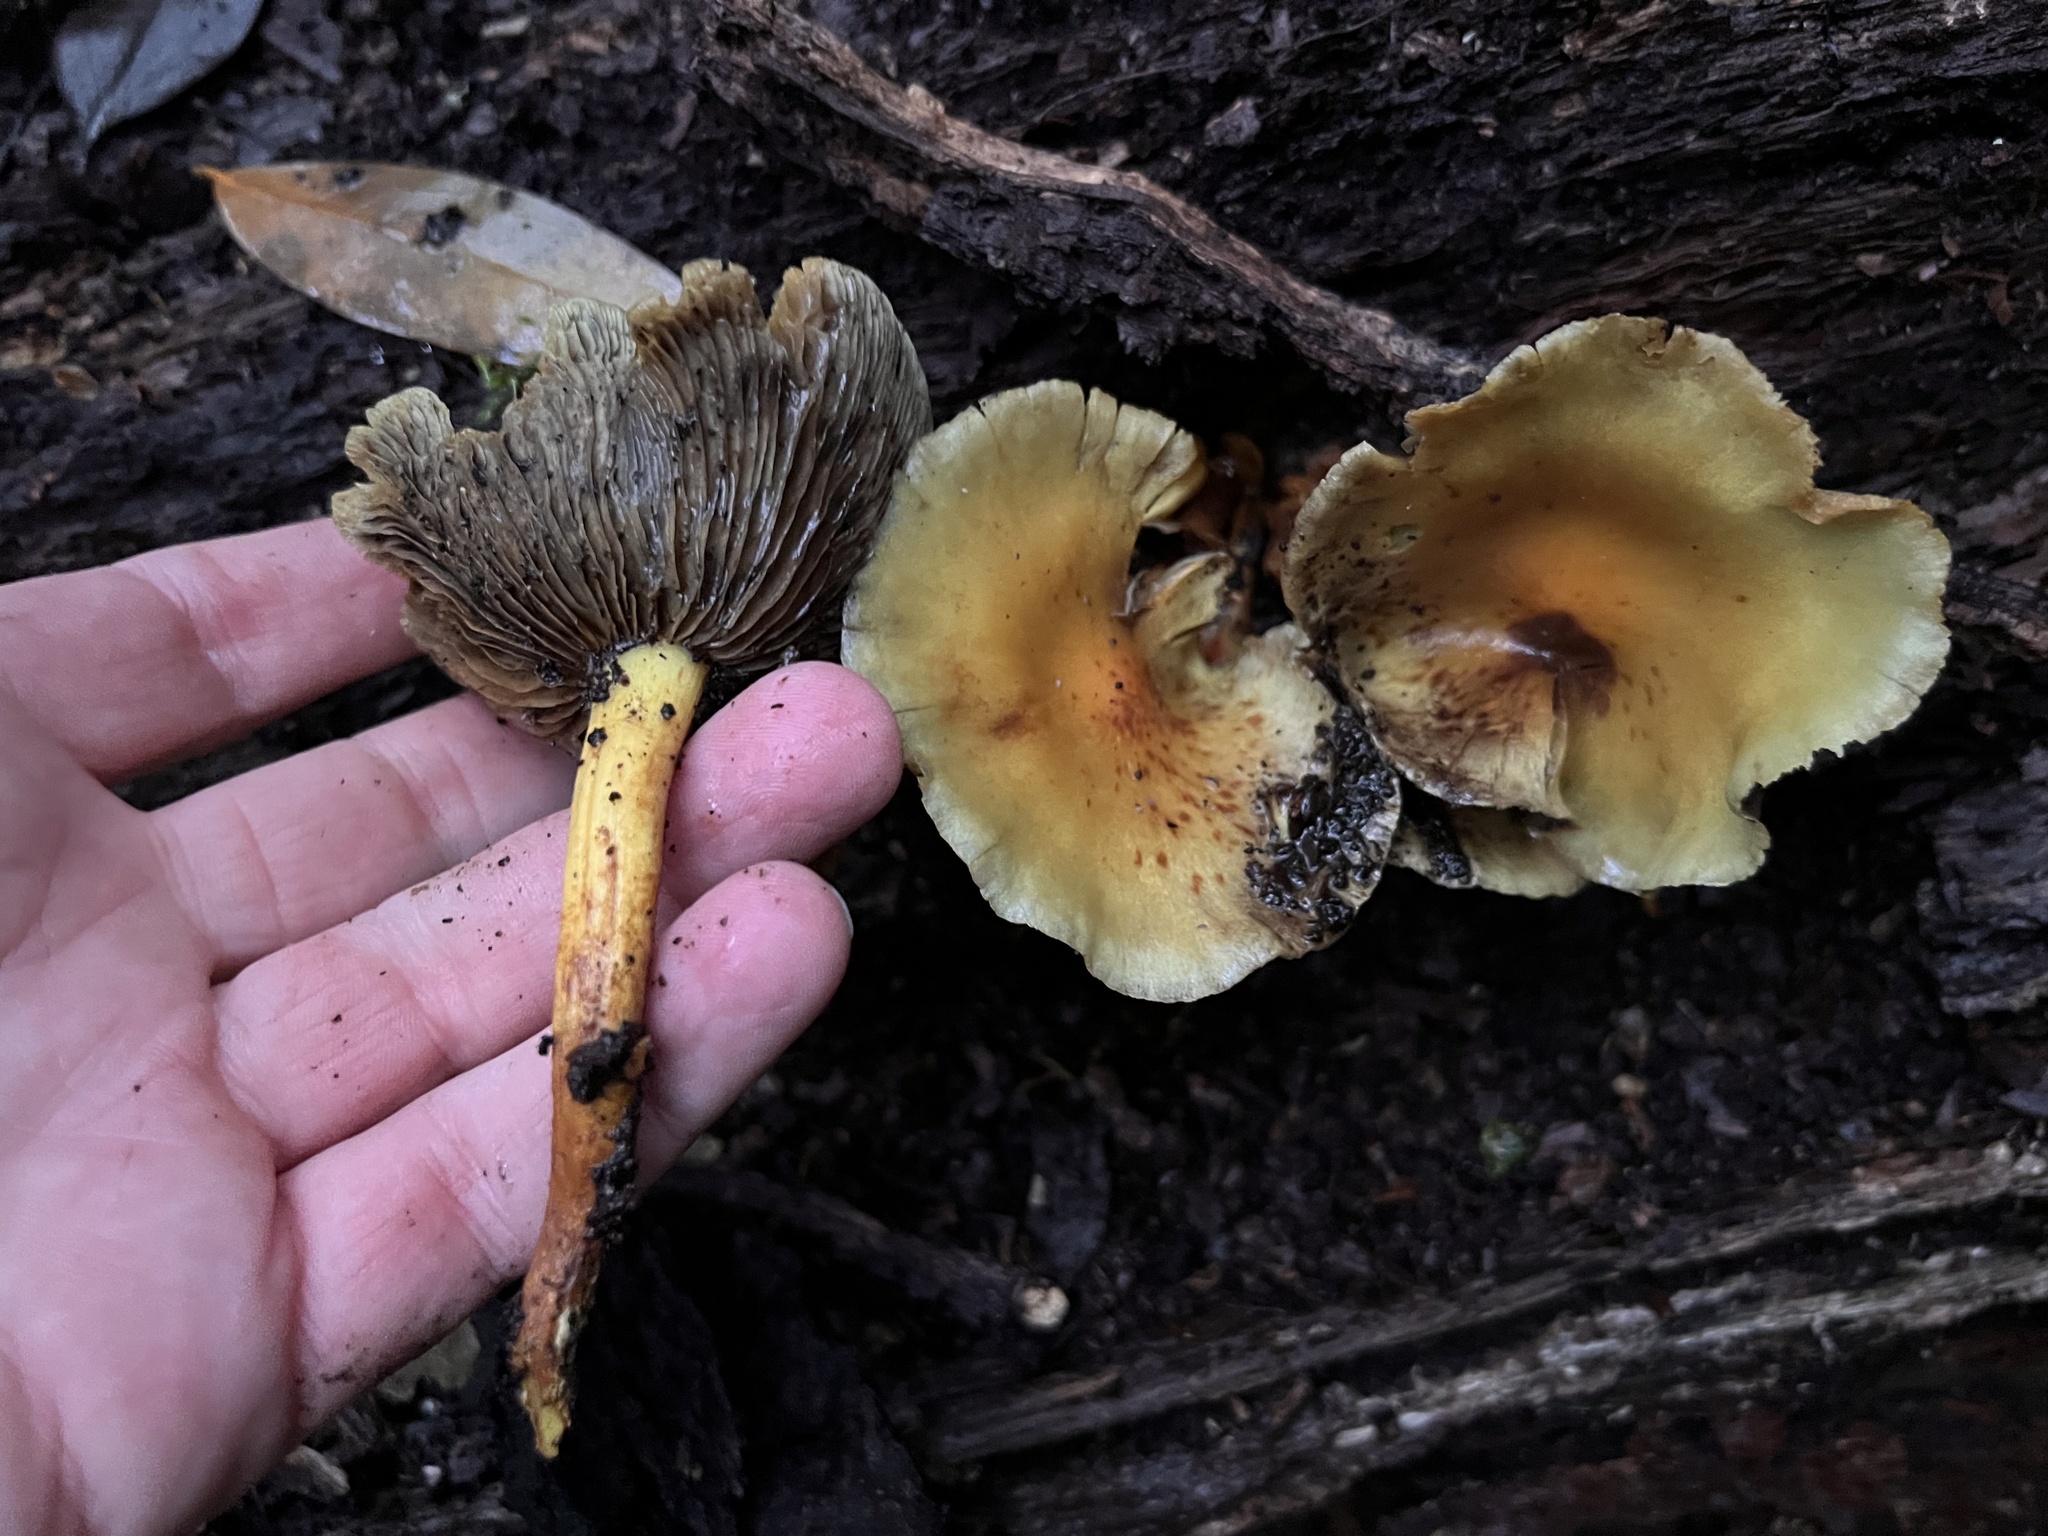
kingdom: Fungi
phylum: Basidiomycota
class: Agaricomycetes
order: Agaricales
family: Strophariaceae
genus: Hypholoma
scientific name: Hypholoma fasciculare
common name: Sulphur tuft
